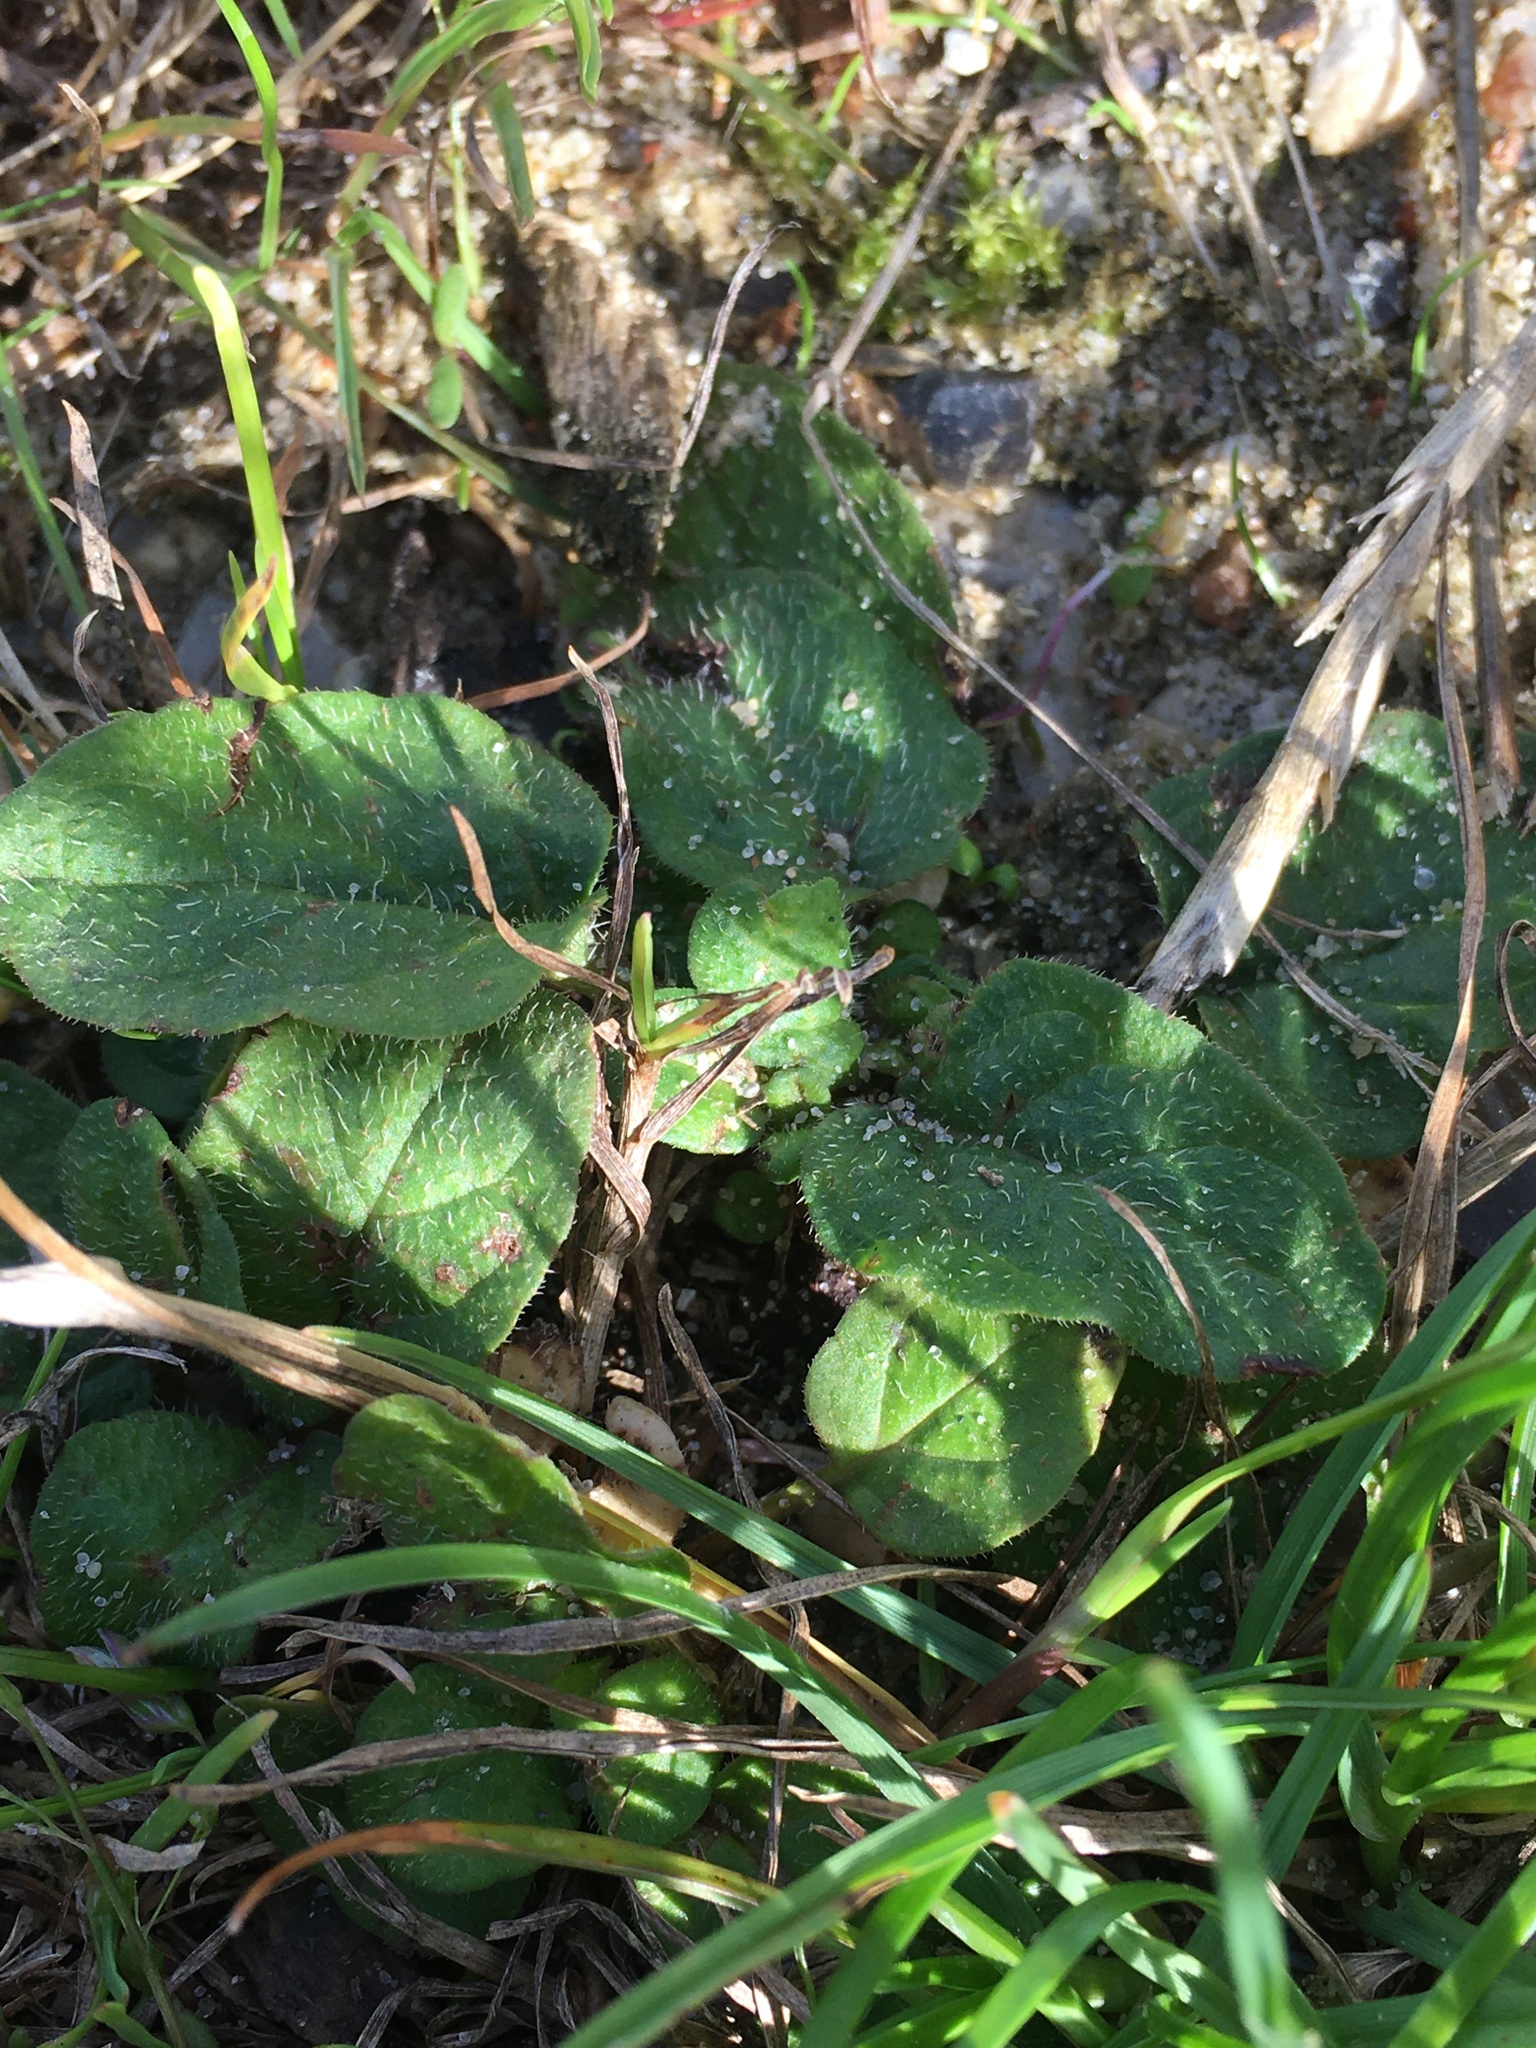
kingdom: Plantae
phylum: Tracheophyta
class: Magnoliopsida
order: Lamiales
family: Lamiaceae
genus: Prunella
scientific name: Prunella vulgaris
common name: Heal-all
